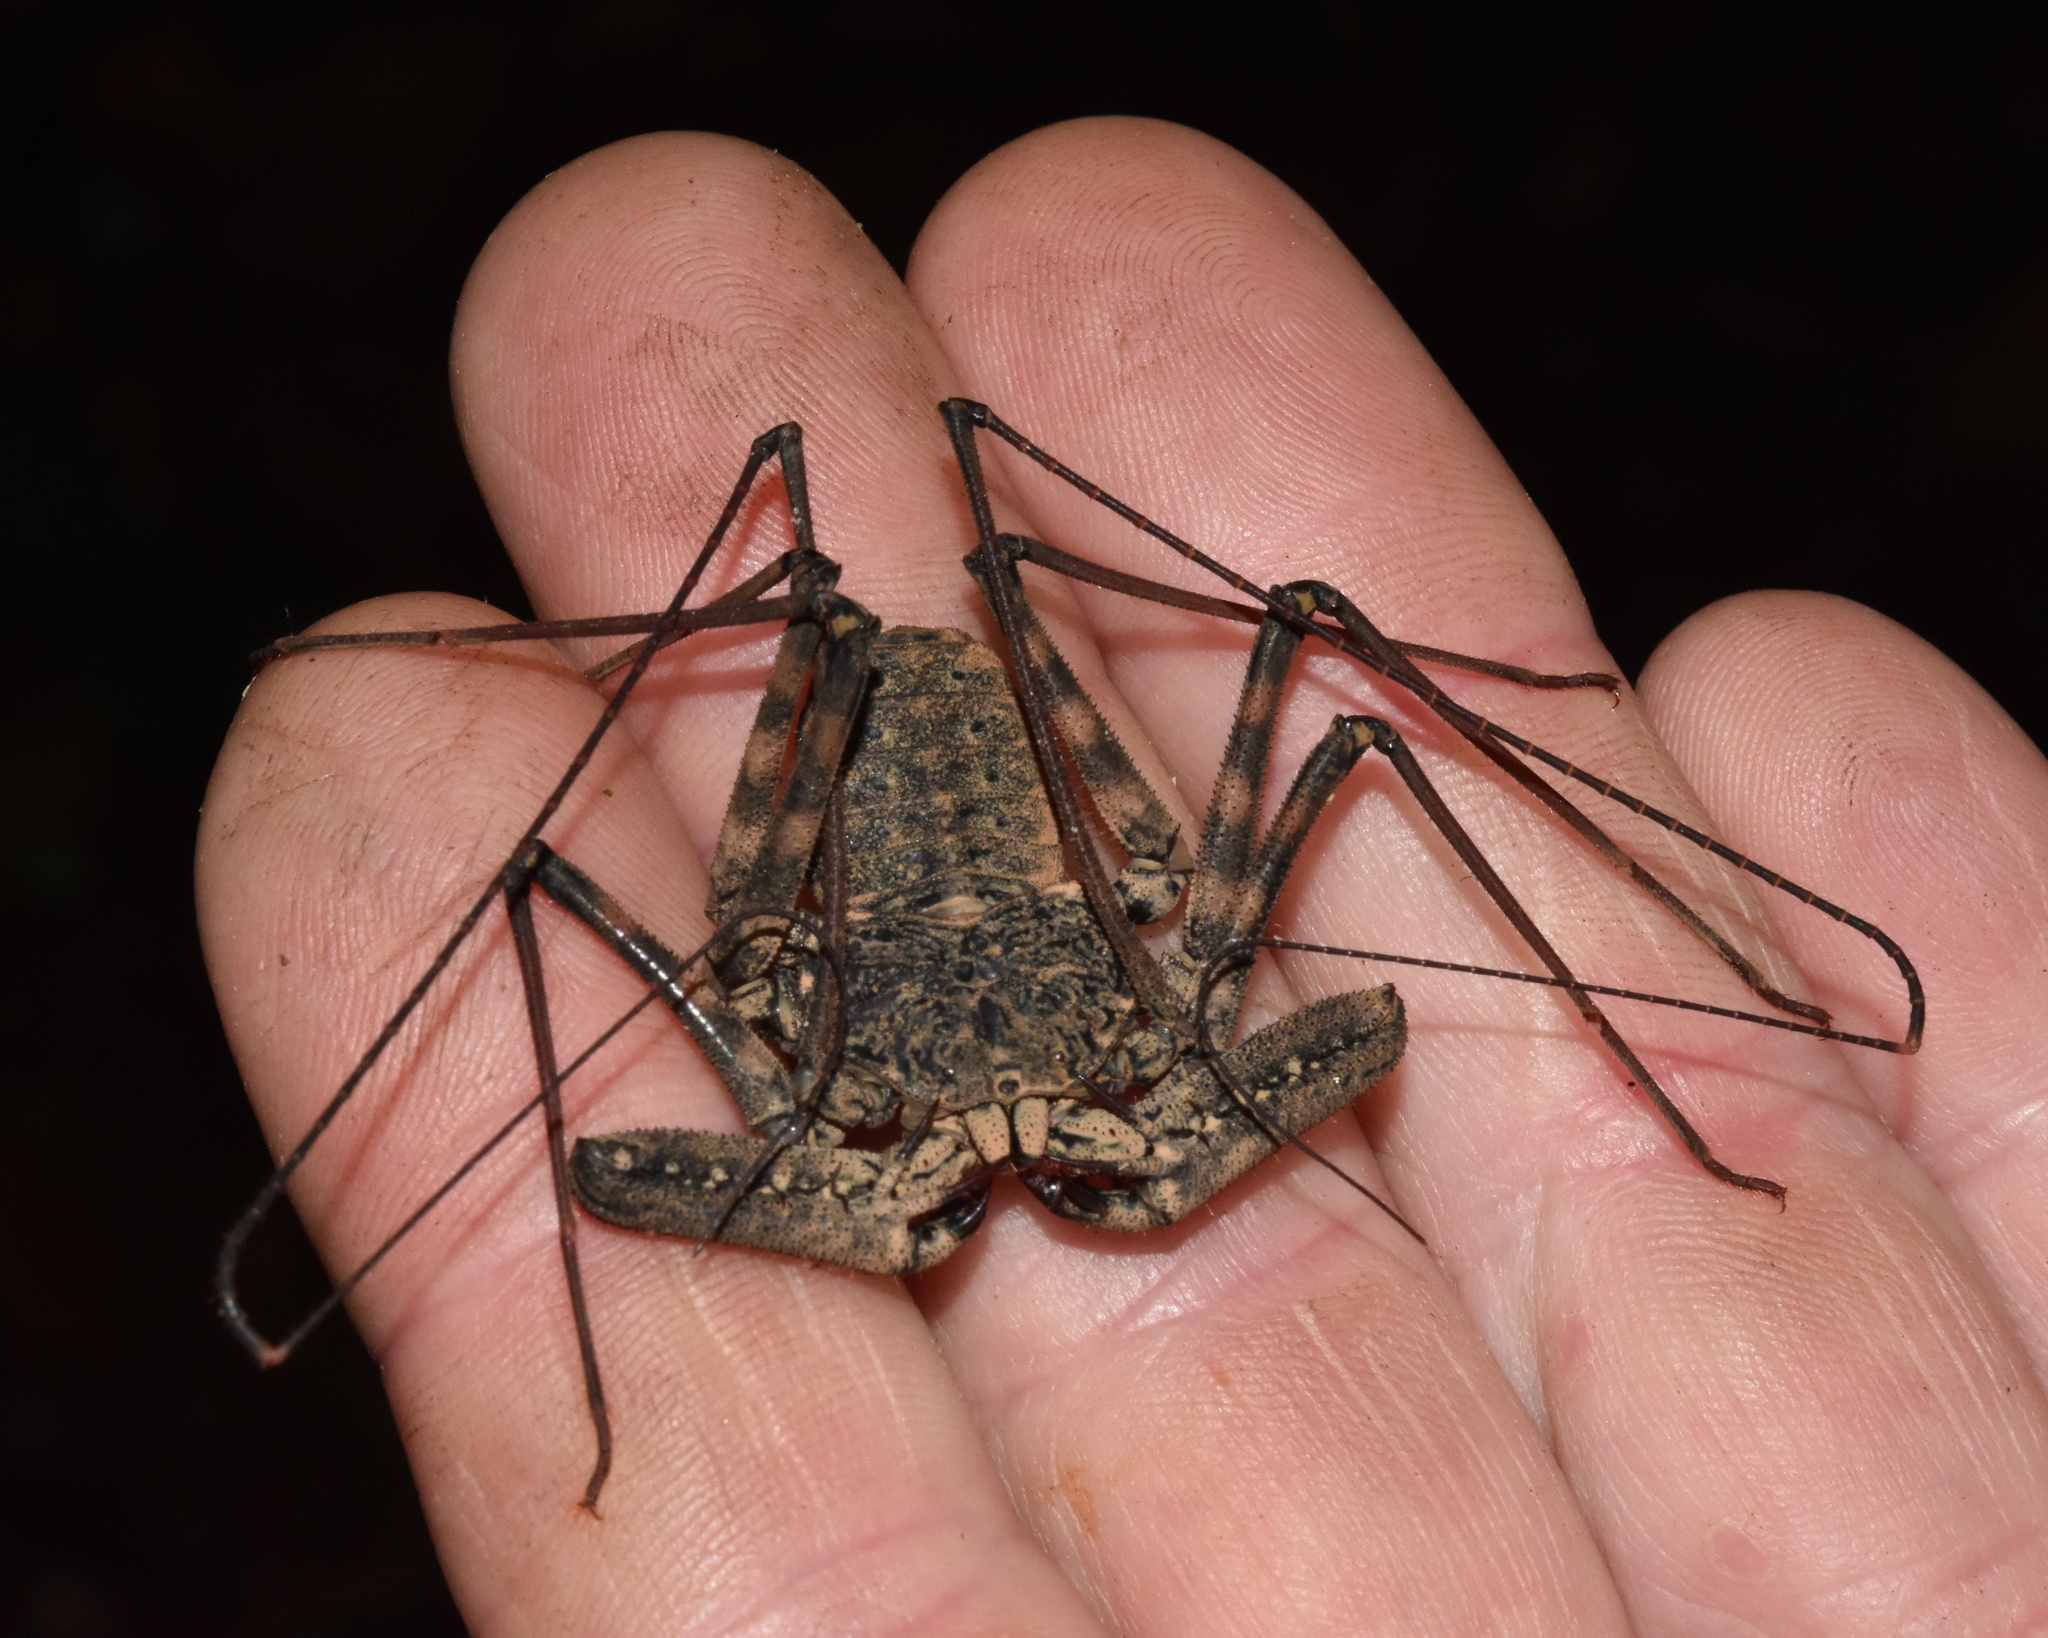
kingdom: Animalia
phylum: Arthropoda
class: Arachnida
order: Amblypygi
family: Phrynichidae
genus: Damon
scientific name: Damon annulatipes
